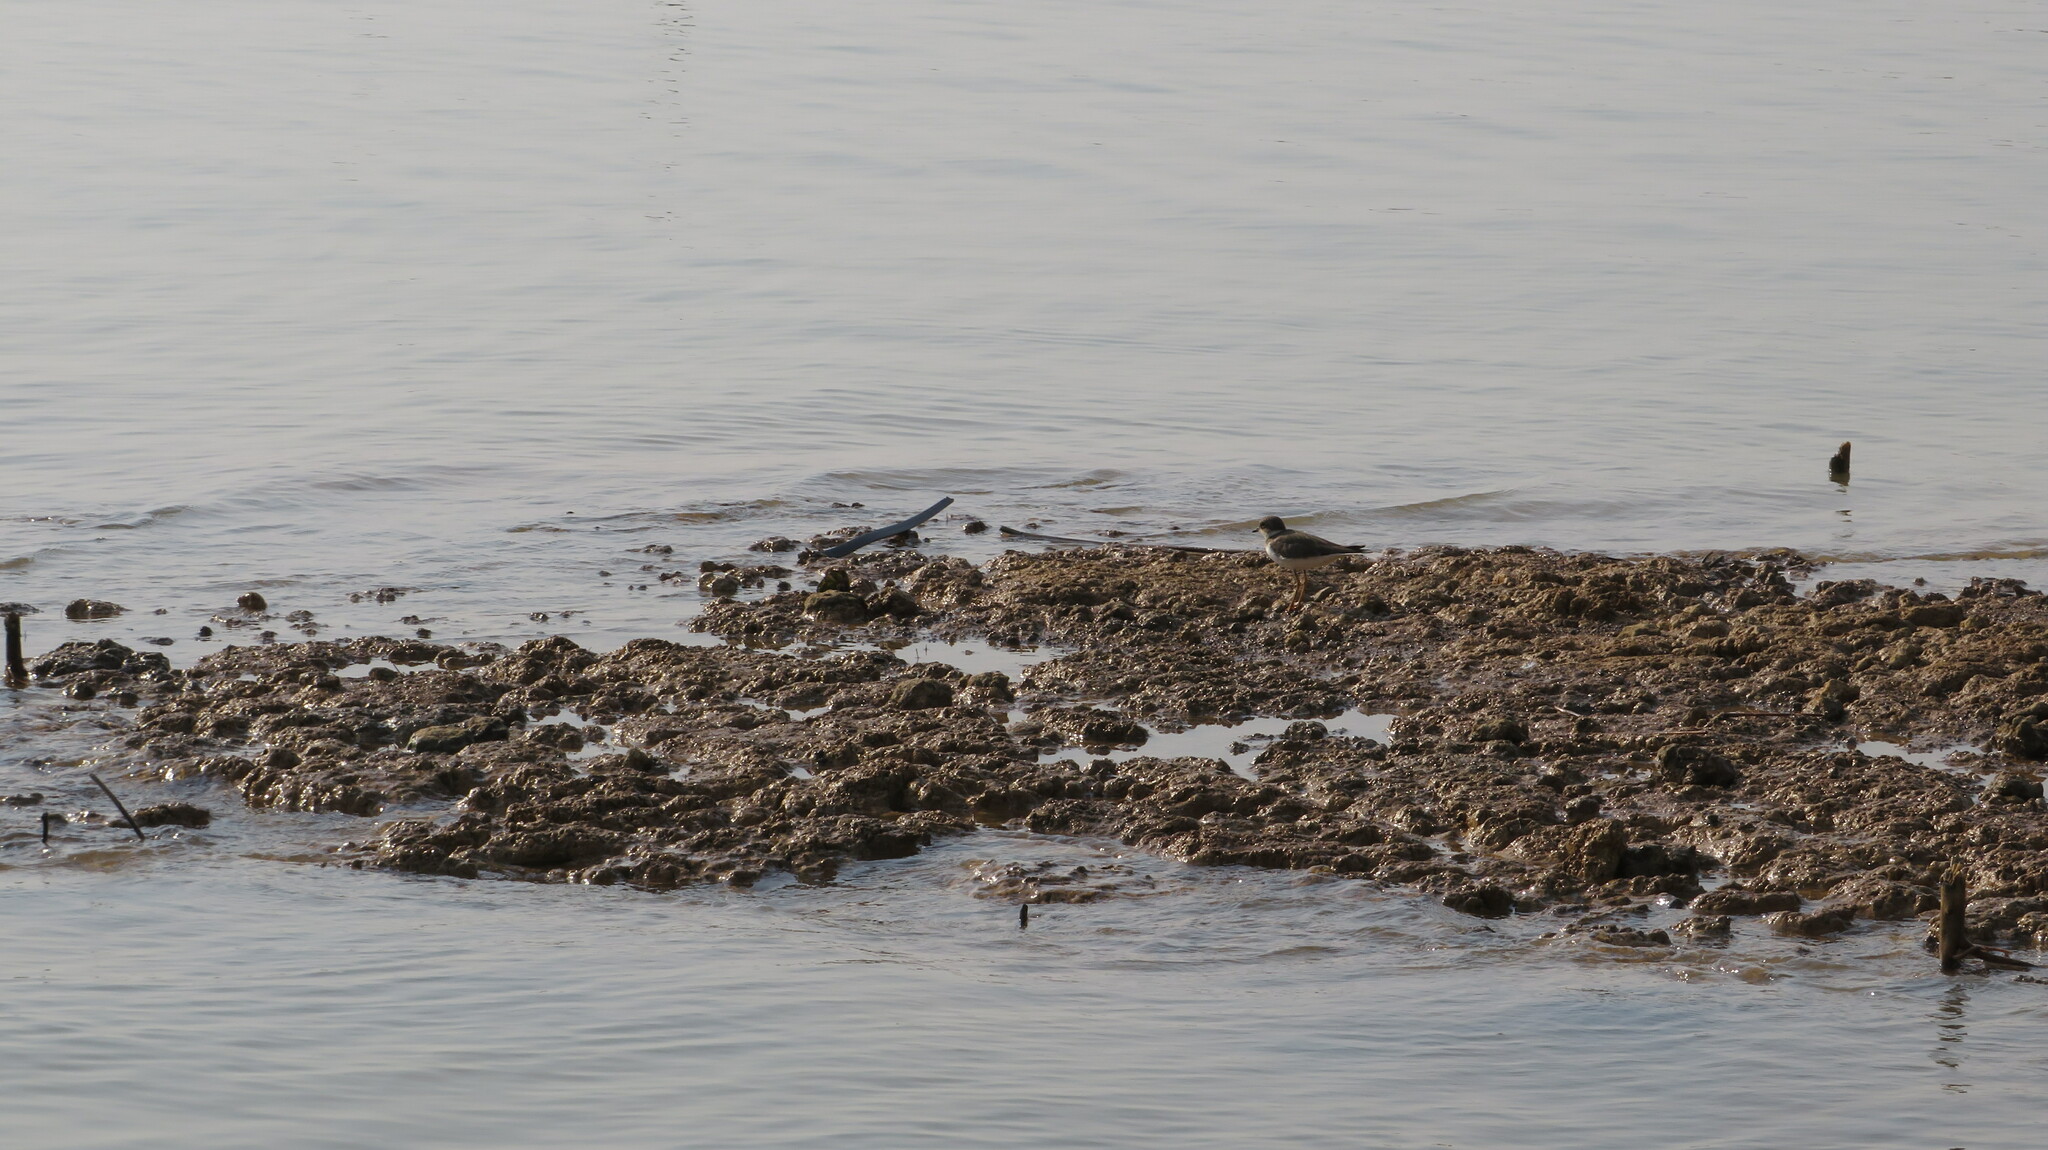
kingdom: Animalia
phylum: Chordata
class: Aves
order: Charadriiformes
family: Charadriidae
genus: Charadrius
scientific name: Charadrius dubius
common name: Little ringed plover
